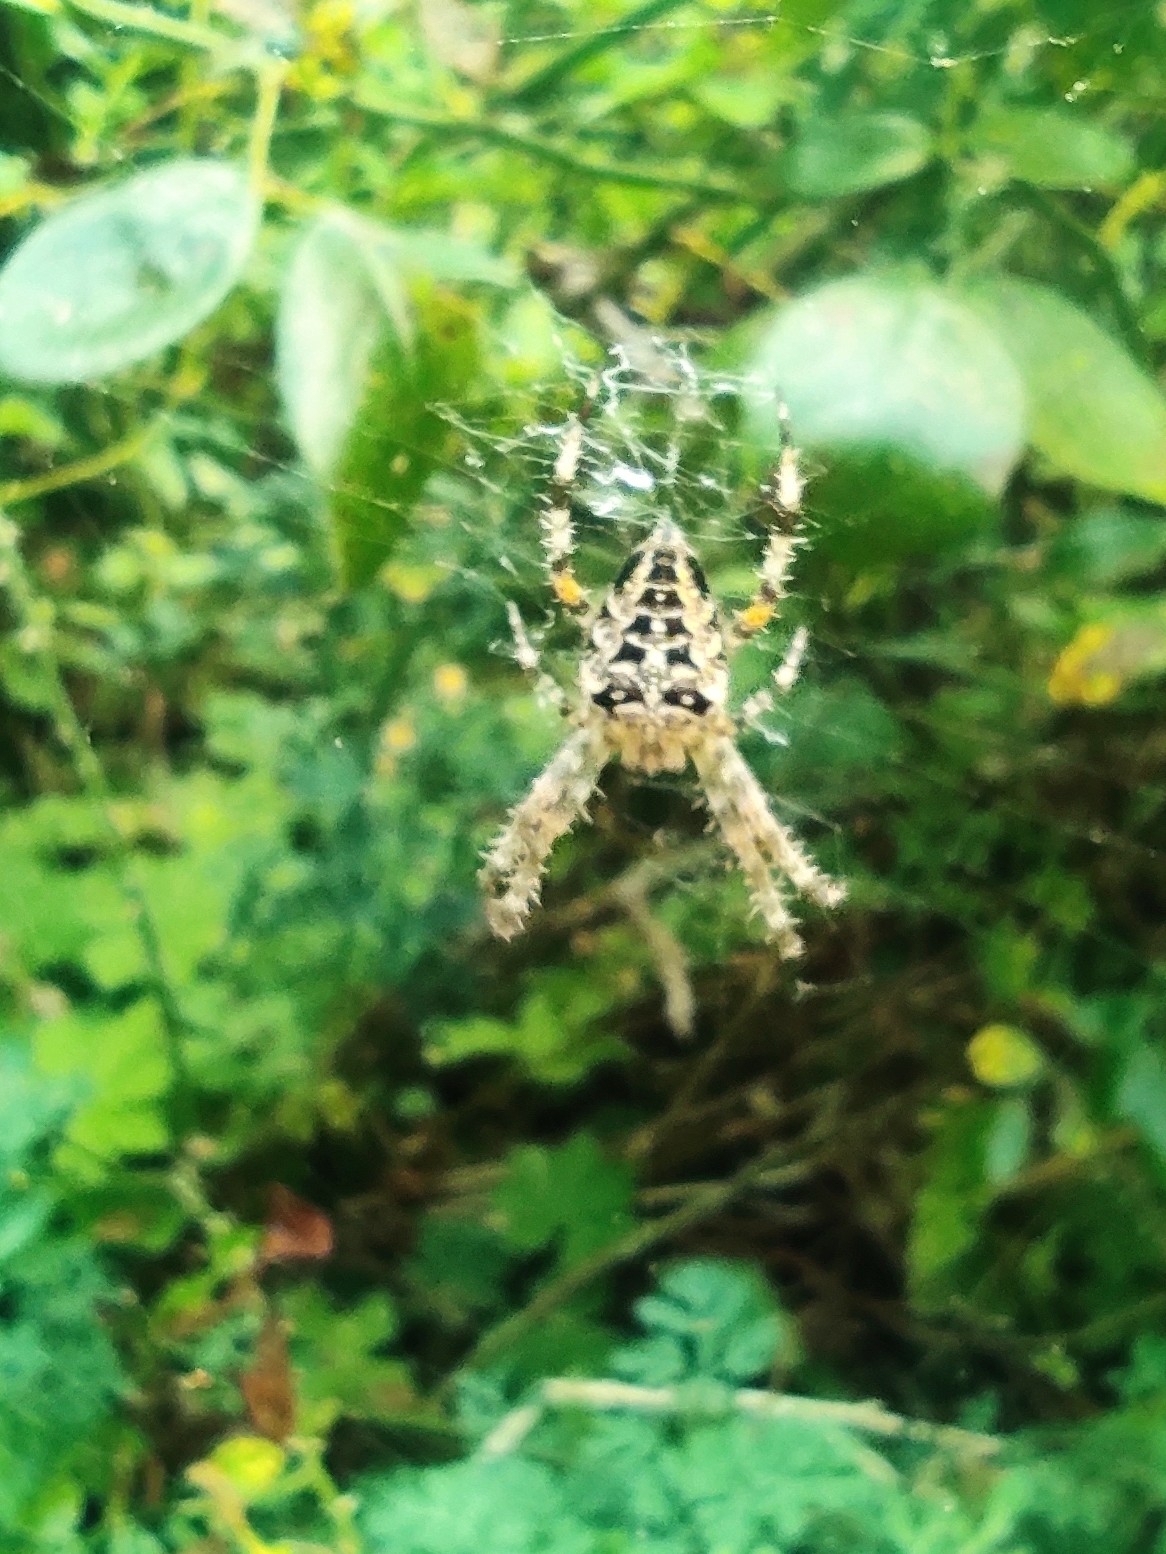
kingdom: Animalia
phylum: Arthropoda
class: Arachnida
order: Araneae
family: Araneidae
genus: Araneus
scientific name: Araneus diadematus
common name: Cross orbweaver
